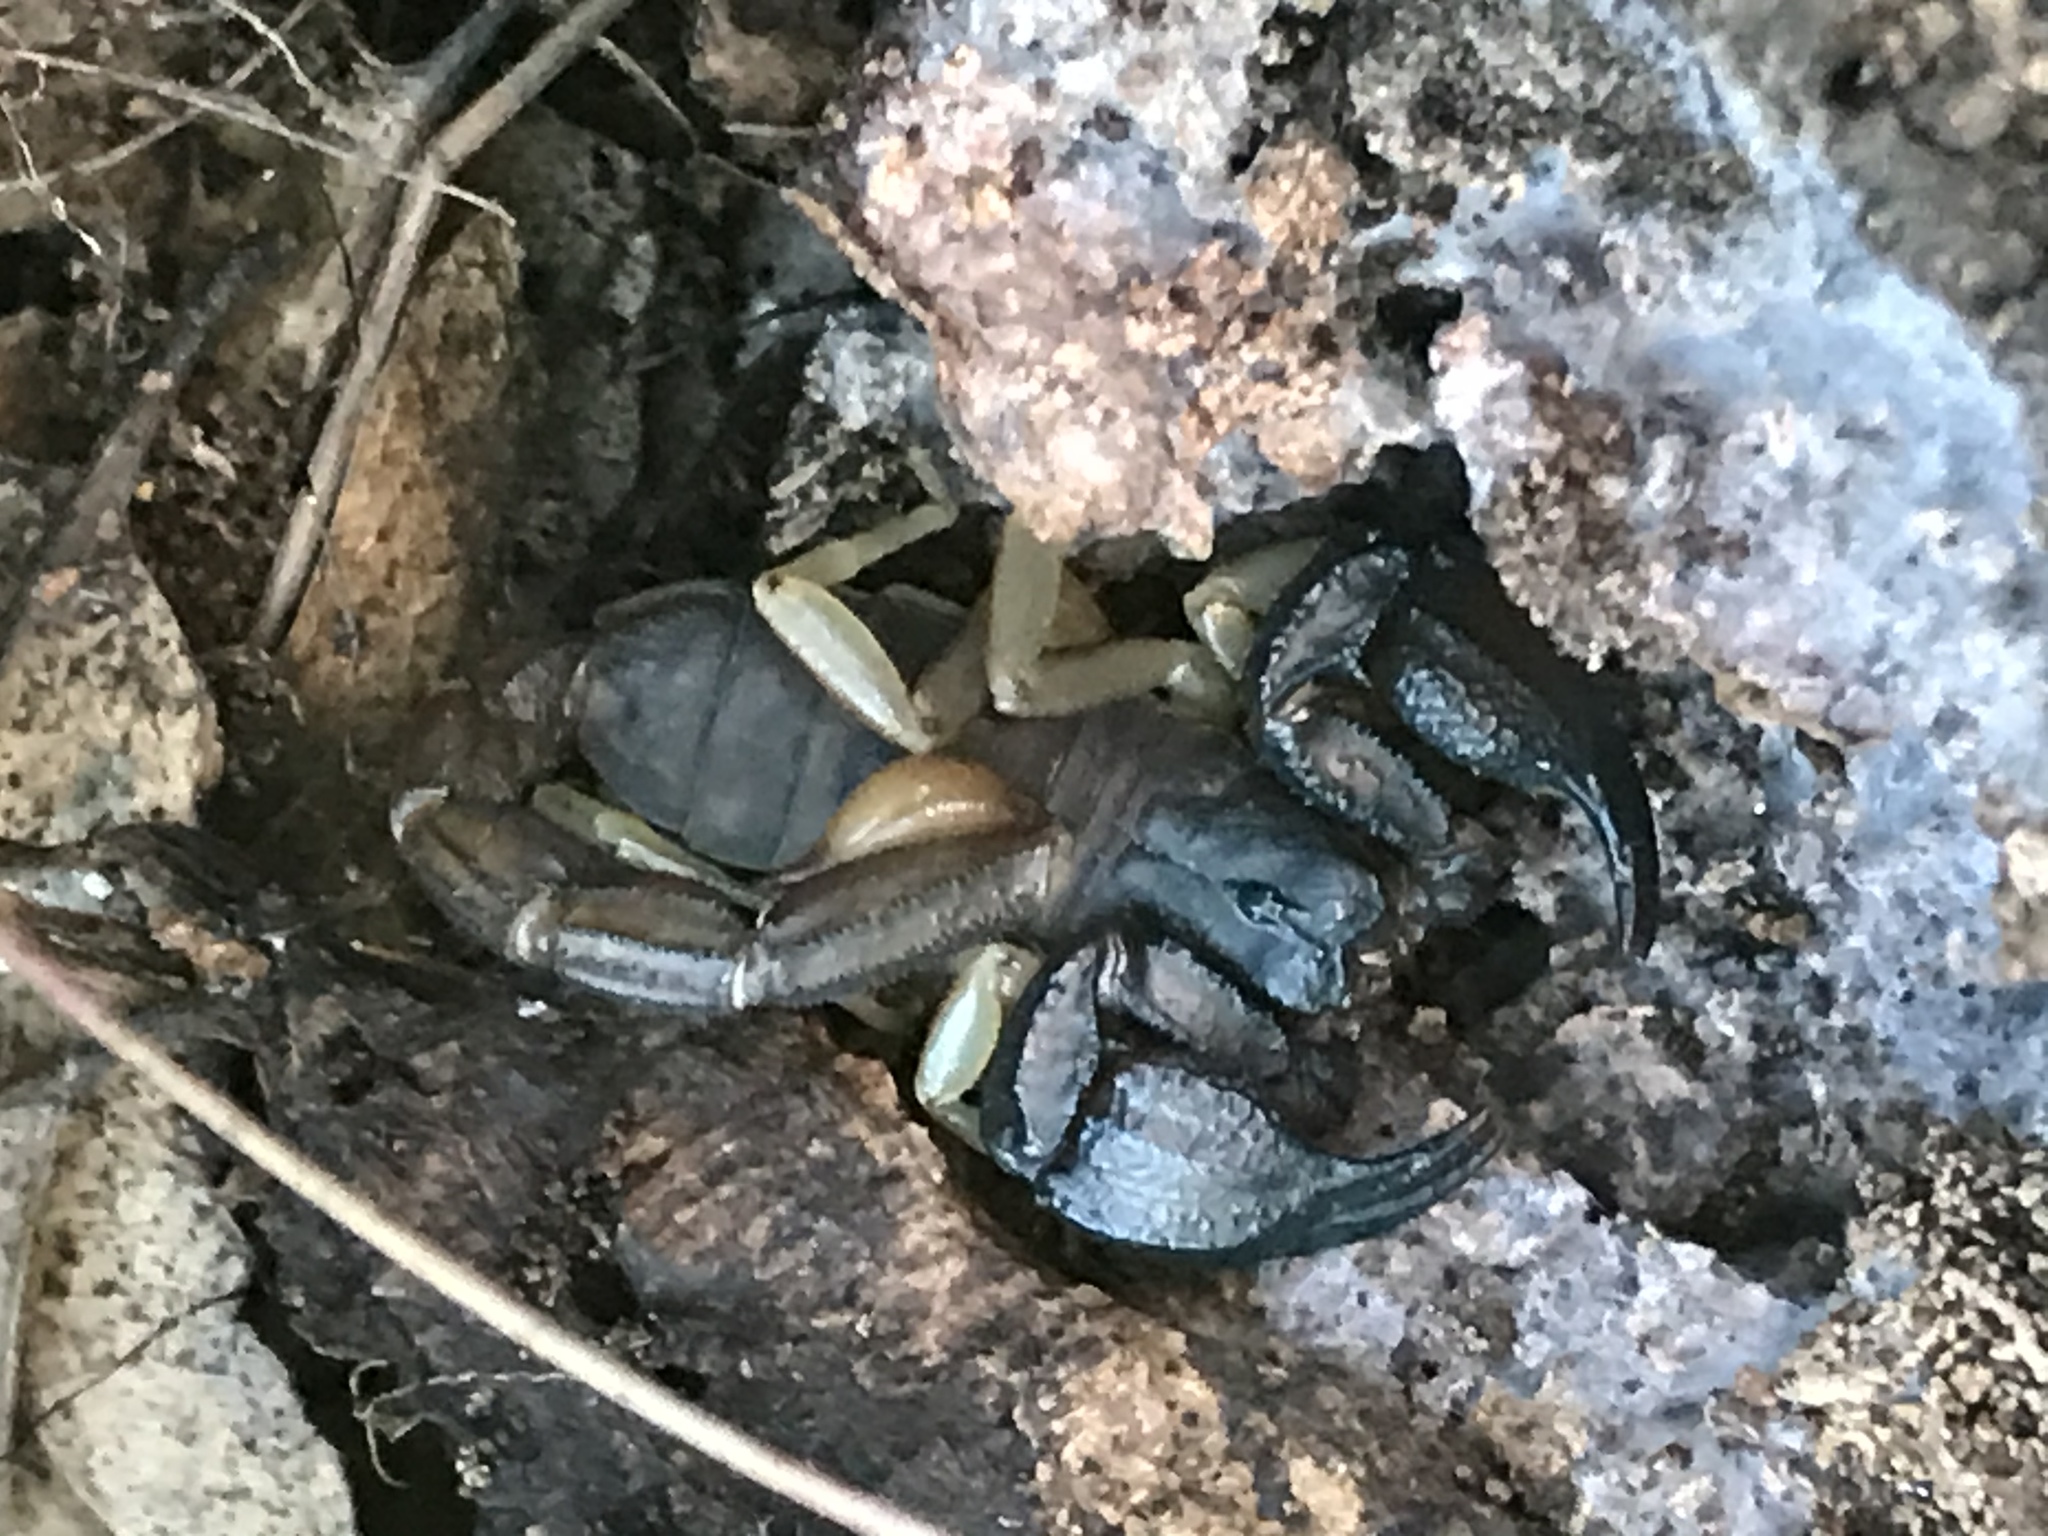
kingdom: Animalia
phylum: Arthropoda
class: Arachnida
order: Scorpiones
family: Chactidae
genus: Uroctonus
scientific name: Uroctonus mordax
